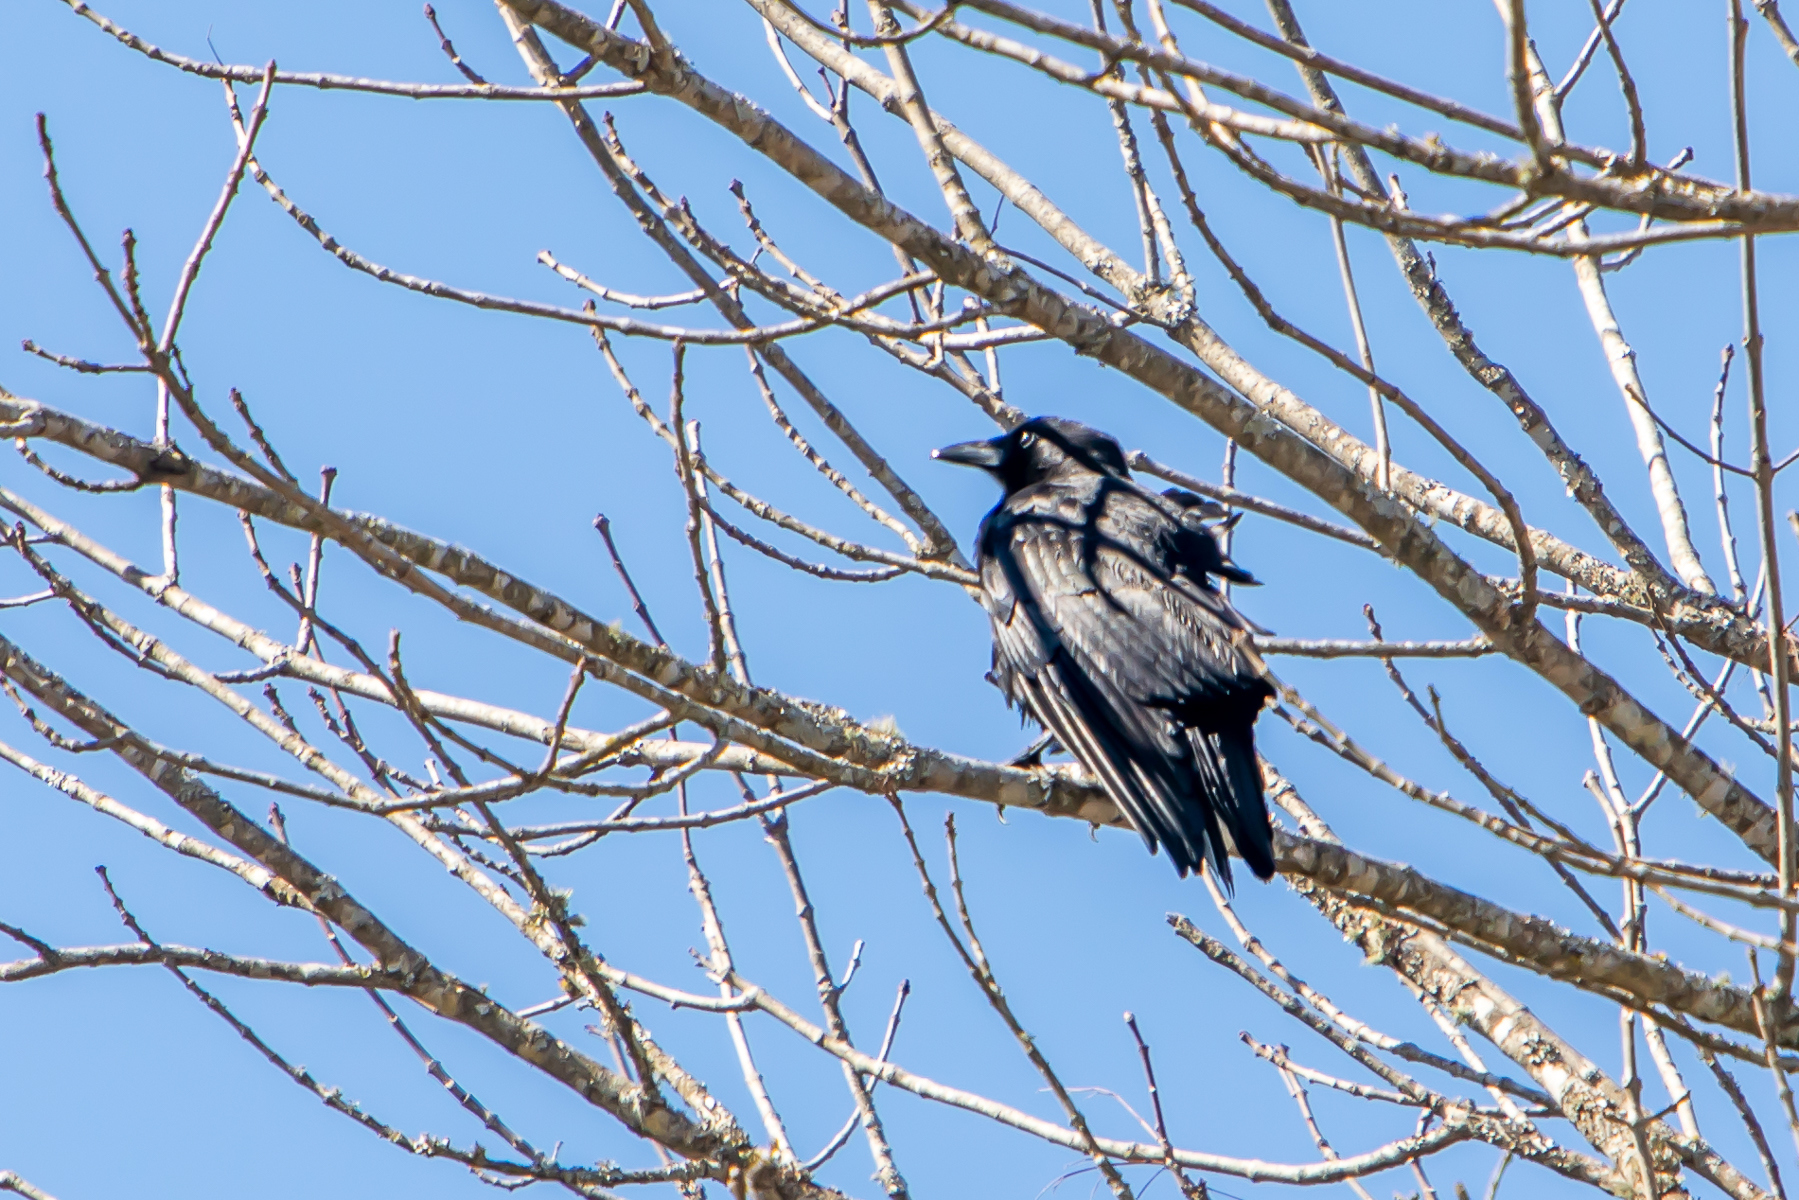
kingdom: Animalia
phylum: Chordata
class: Aves
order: Passeriformes
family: Corvidae
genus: Corvus
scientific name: Corvus brachyrhynchos
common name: American crow
